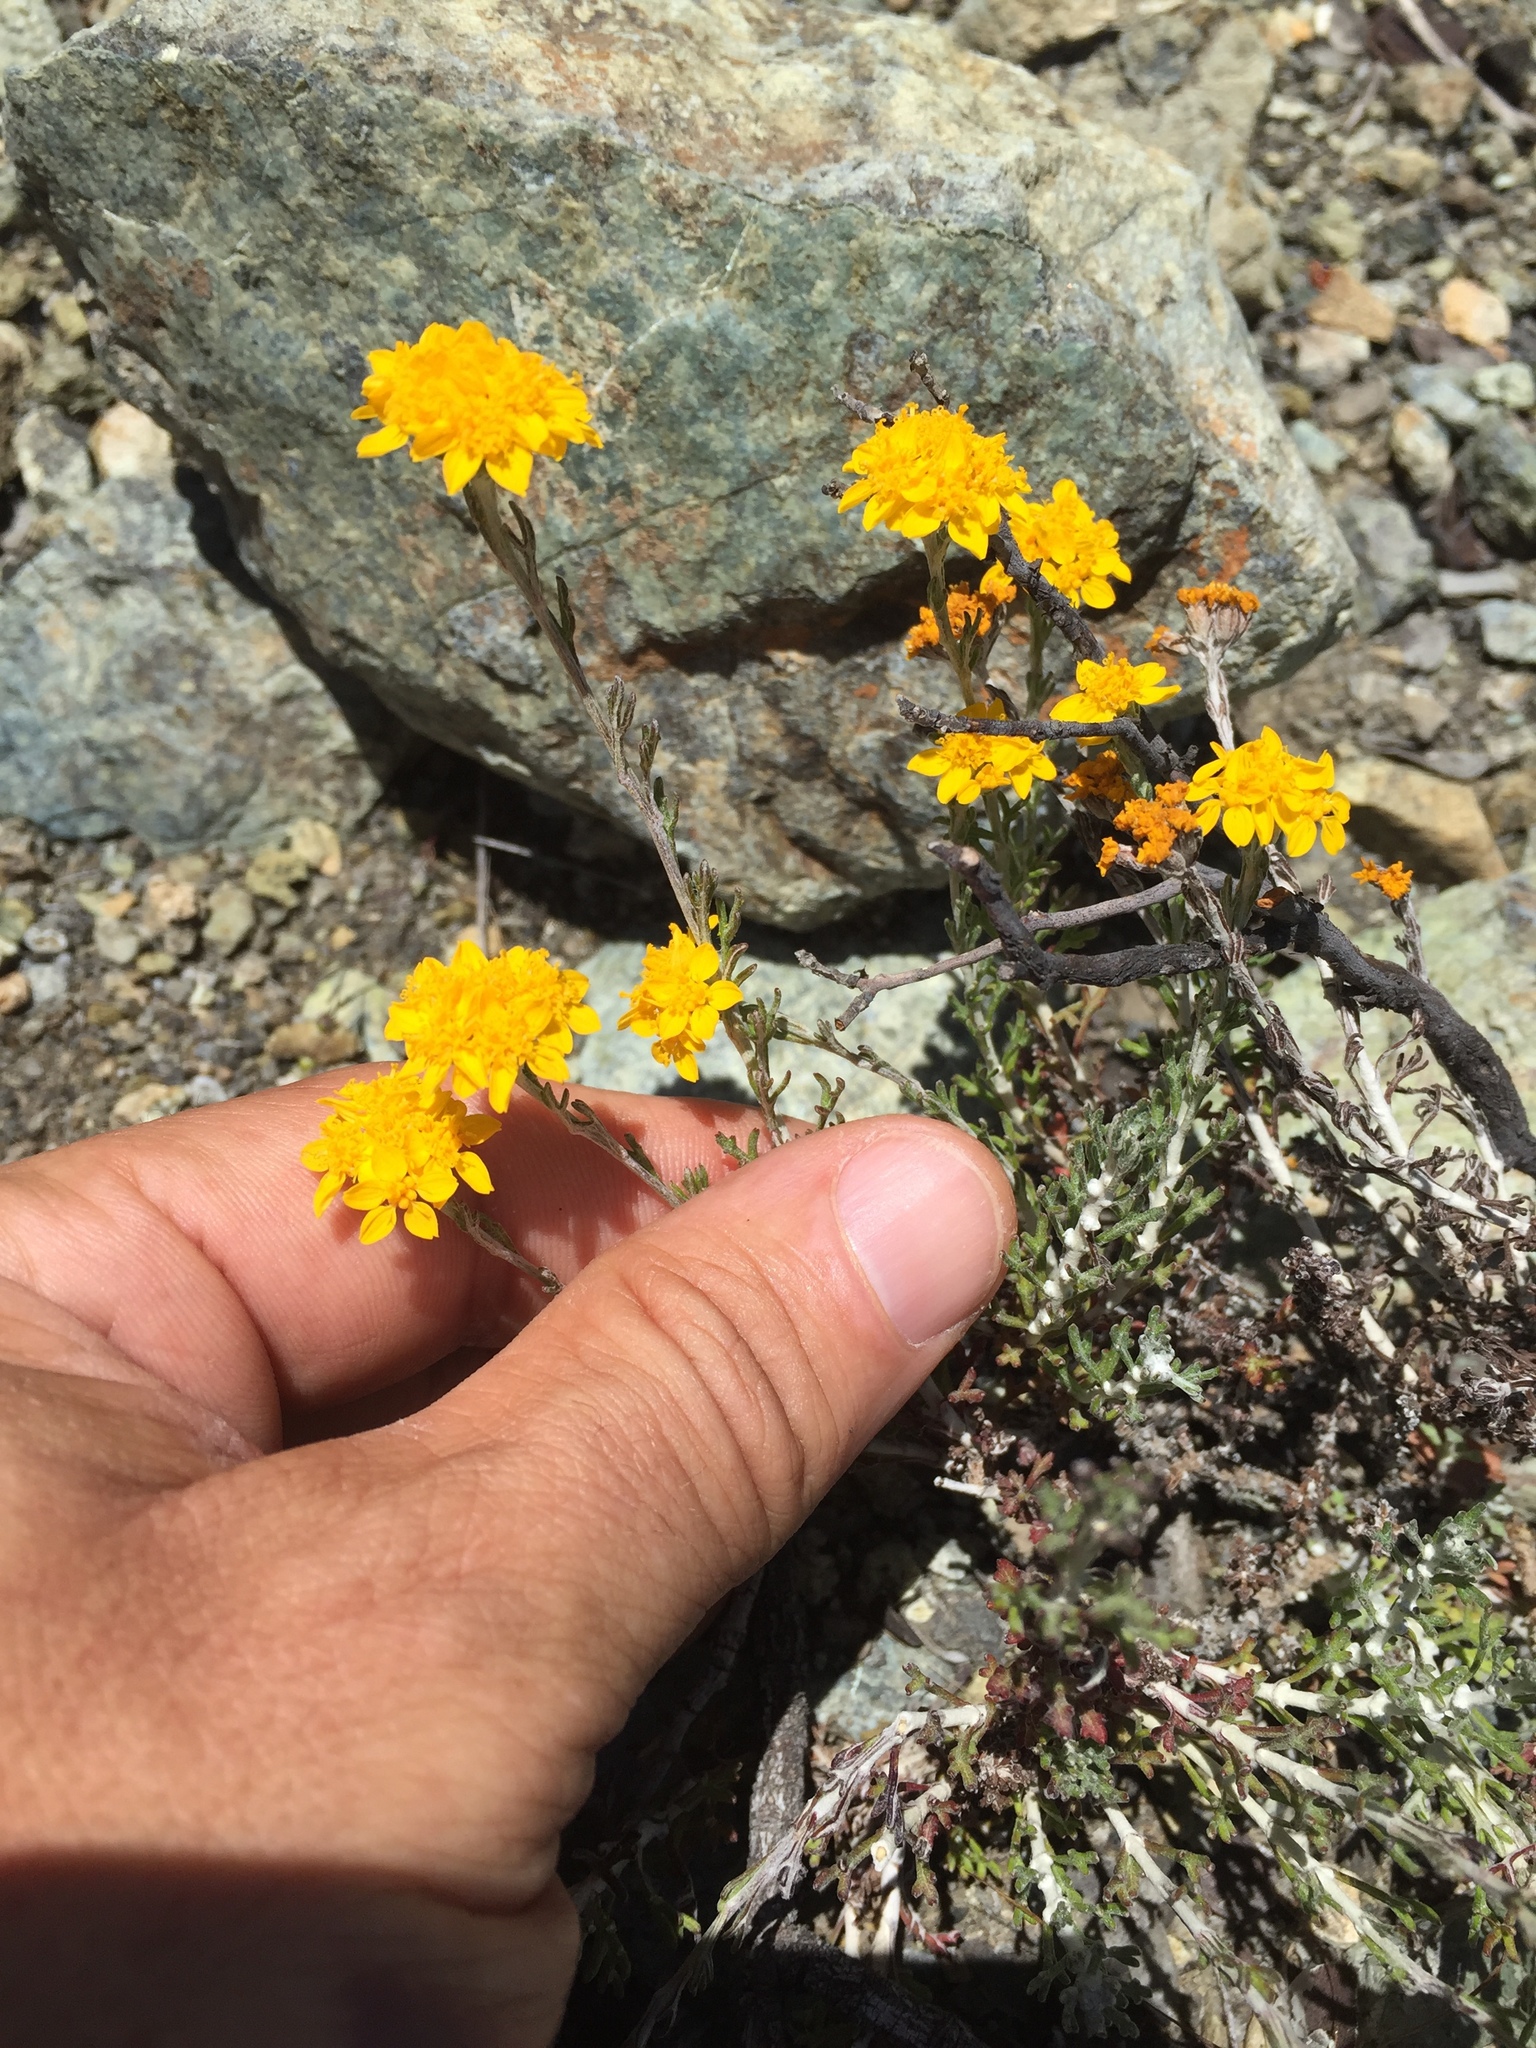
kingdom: Plantae
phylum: Tracheophyta
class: Magnoliopsida
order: Asterales
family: Asteraceae
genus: Eriophyllum
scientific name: Eriophyllum confertiflorum
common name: Golden-yarrow
